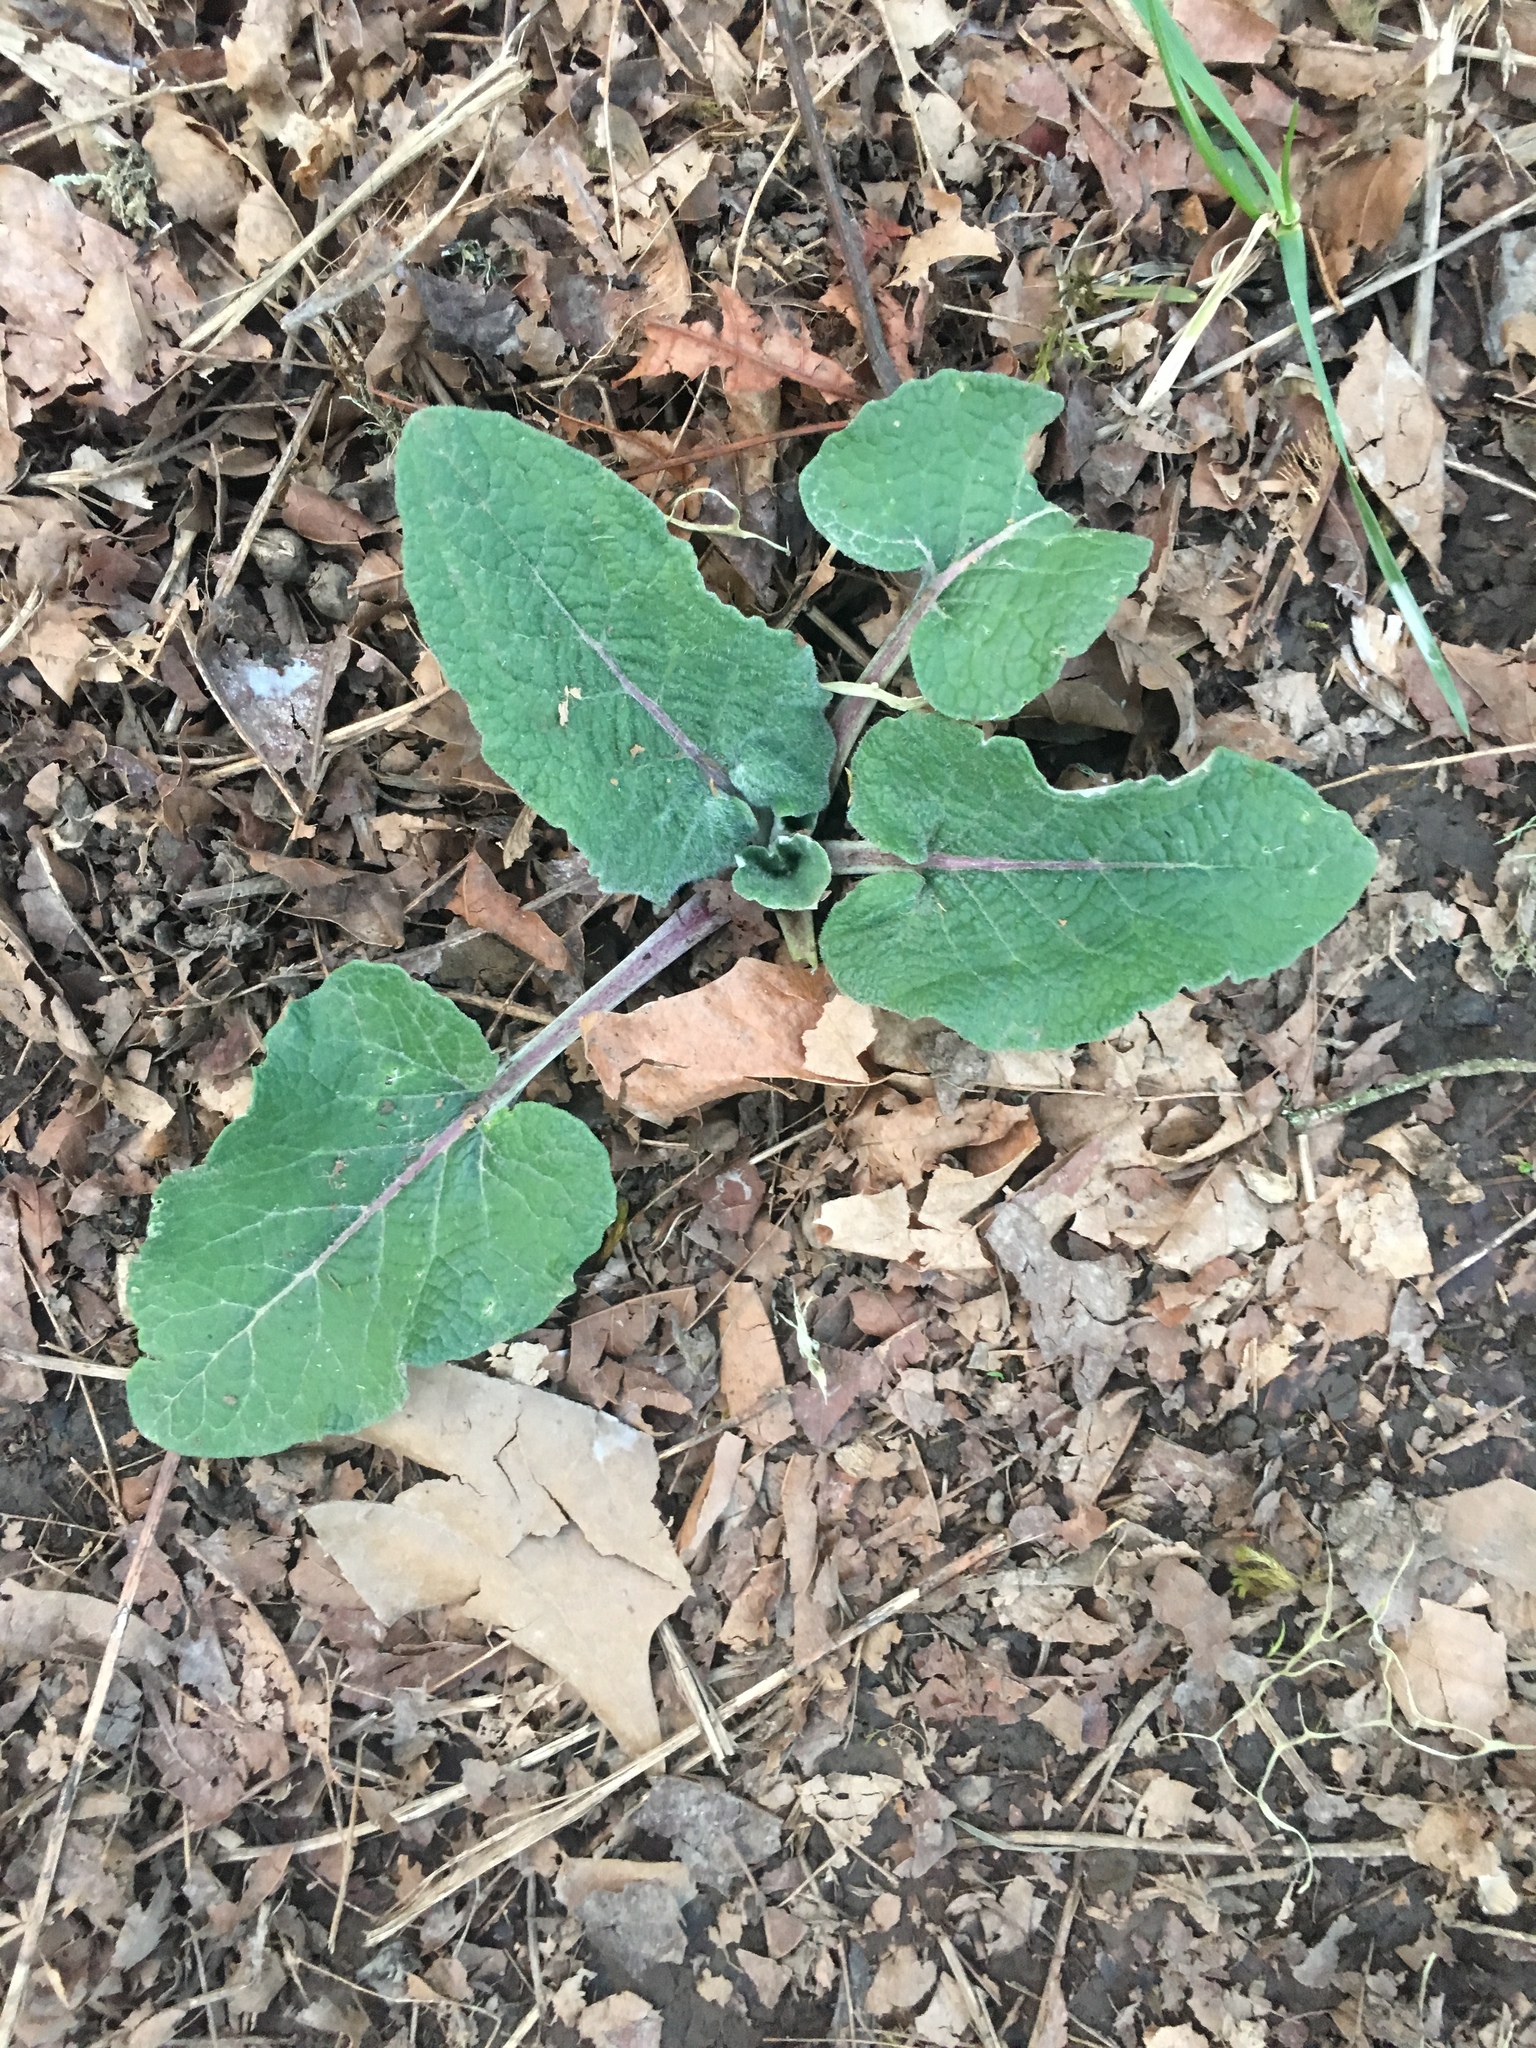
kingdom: Plantae
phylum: Tracheophyta
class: Magnoliopsida
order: Asterales
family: Asteraceae
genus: Arctium
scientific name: Arctium minus
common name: Lesser burdock
